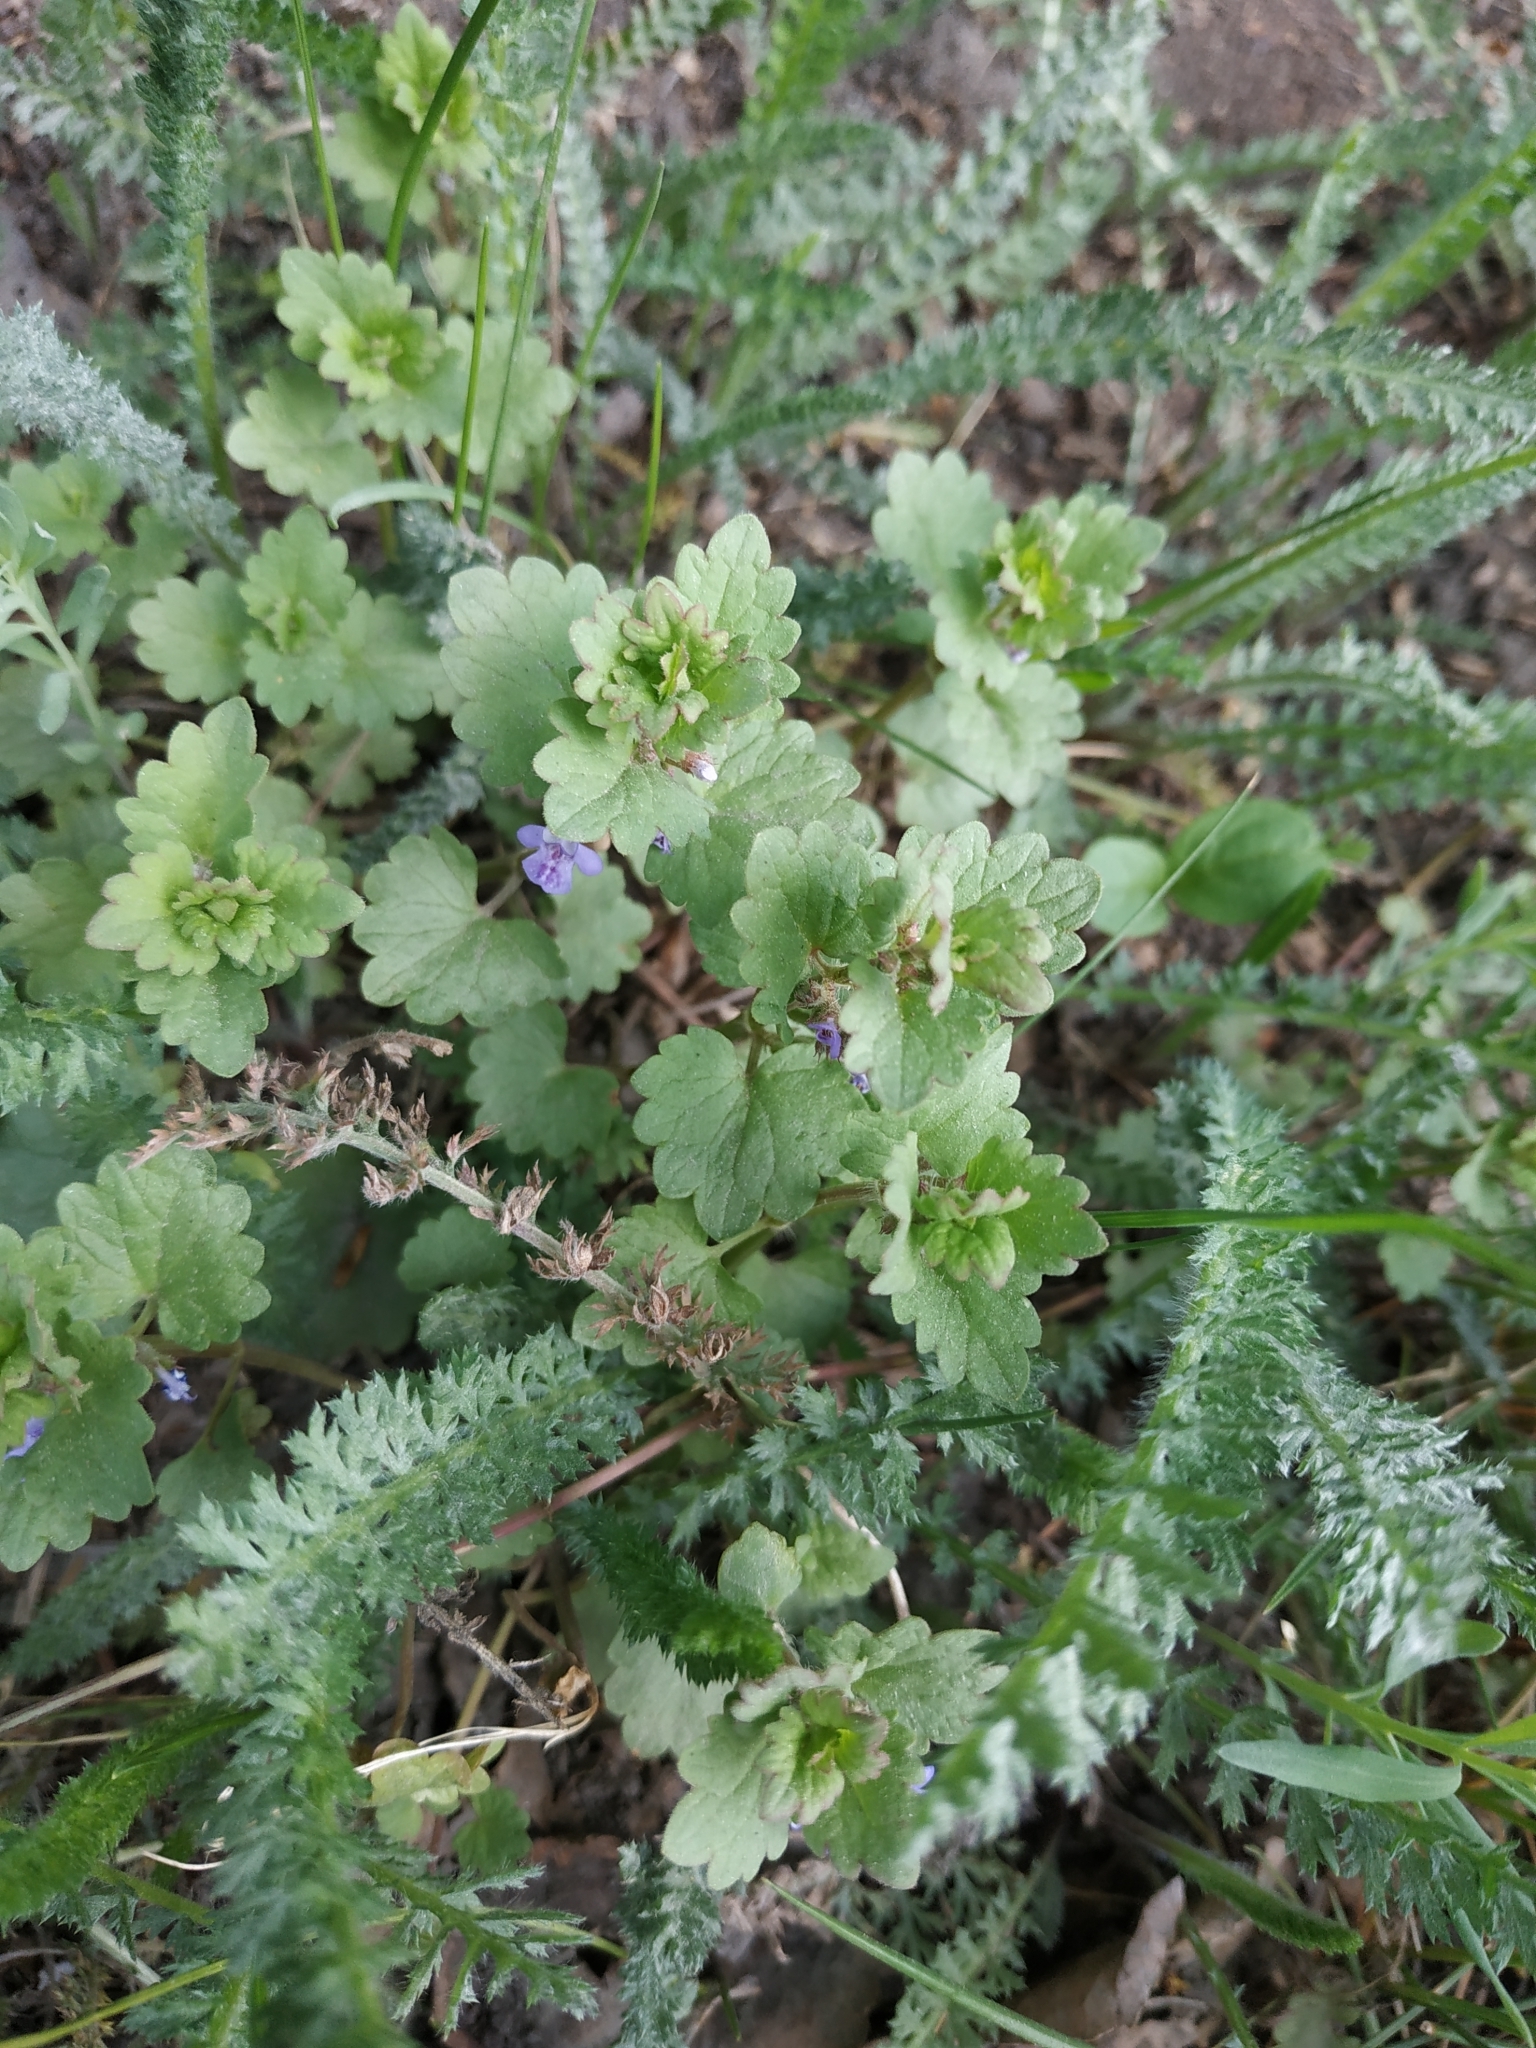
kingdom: Plantae
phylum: Tracheophyta
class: Magnoliopsida
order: Lamiales
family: Lamiaceae
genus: Glechoma
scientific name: Glechoma hederacea
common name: Ground ivy
